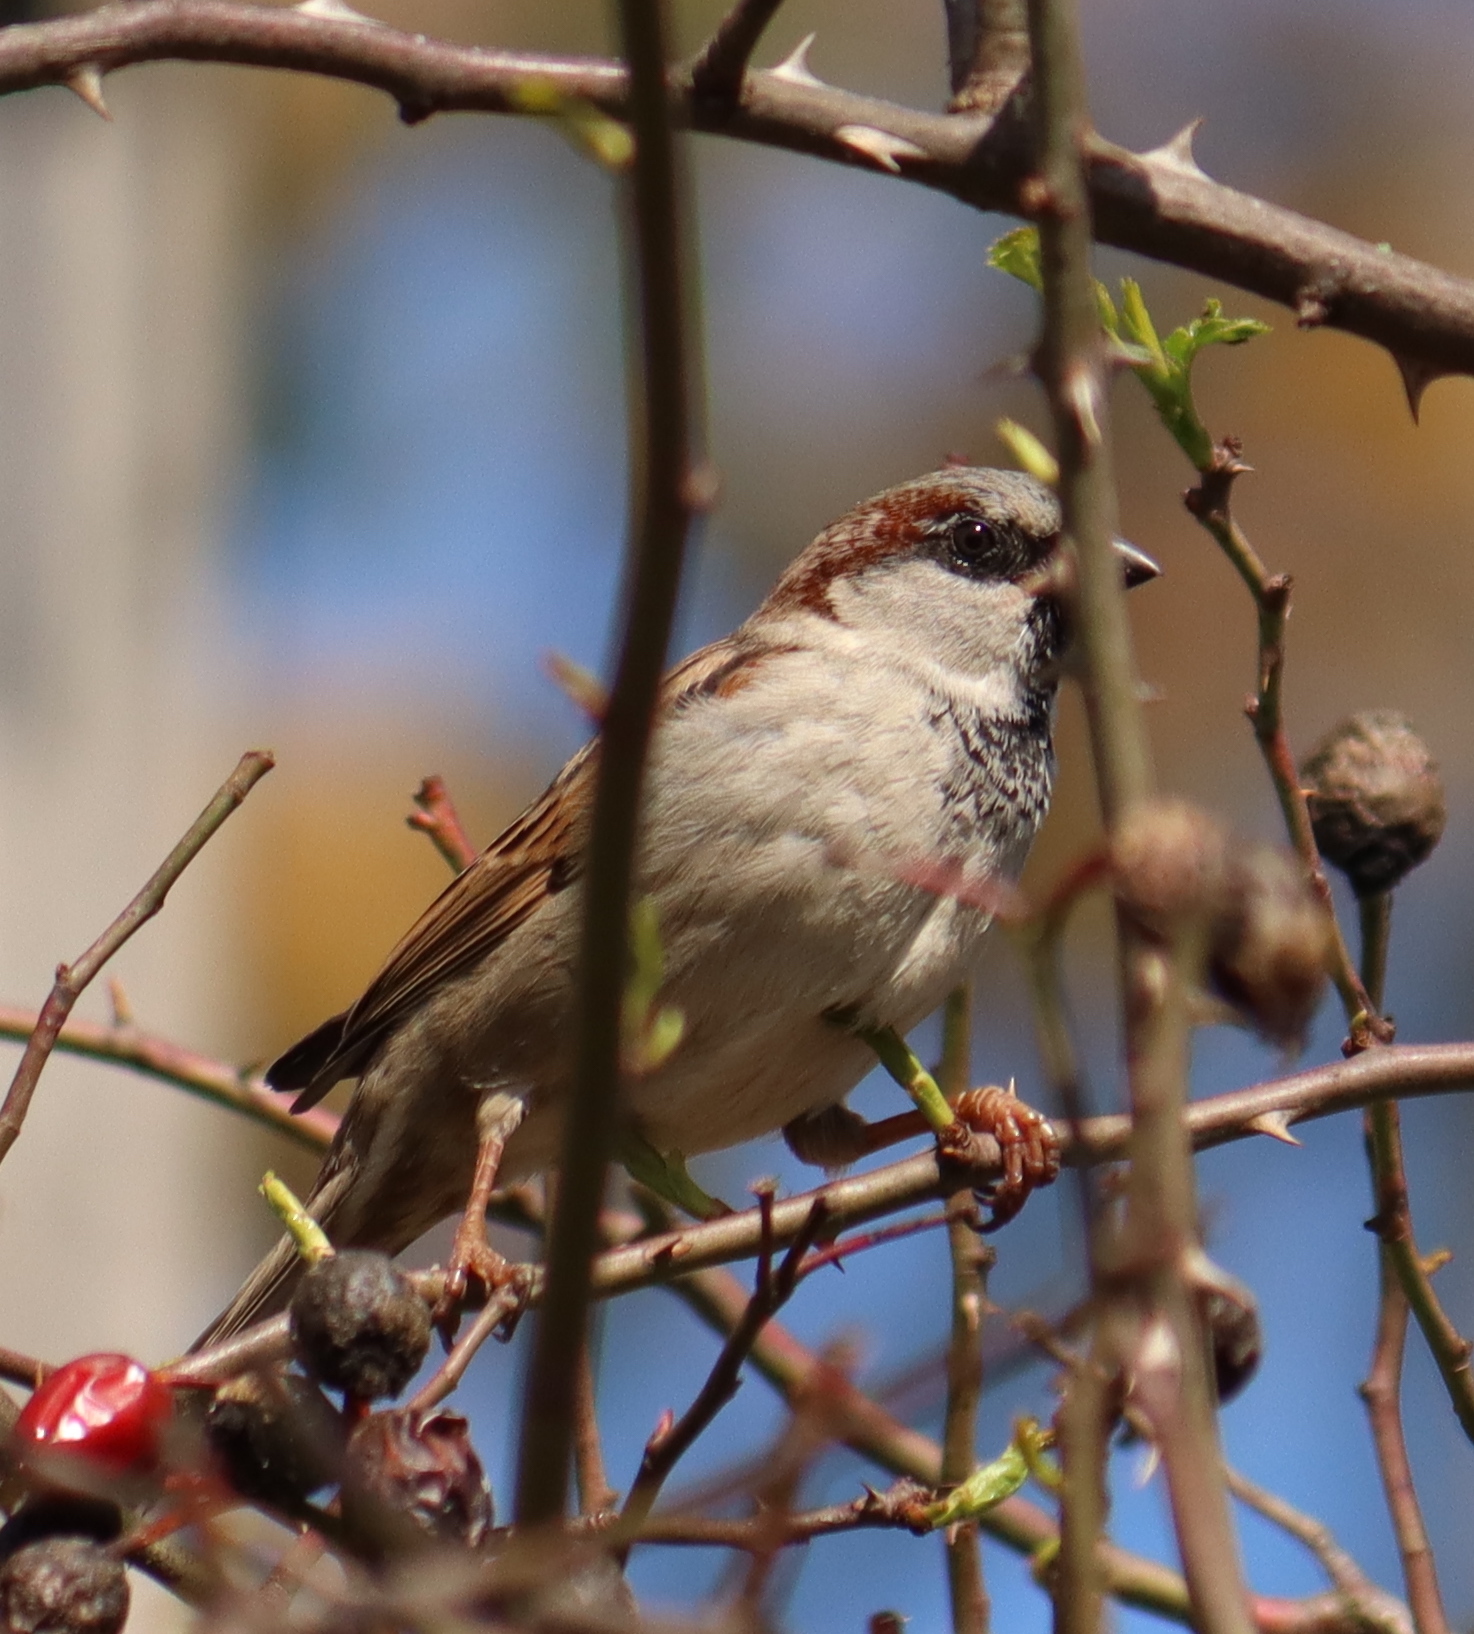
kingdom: Animalia
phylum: Chordata
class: Aves
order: Passeriformes
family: Passeridae
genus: Passer
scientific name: Passer domesticus
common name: House sparrow
